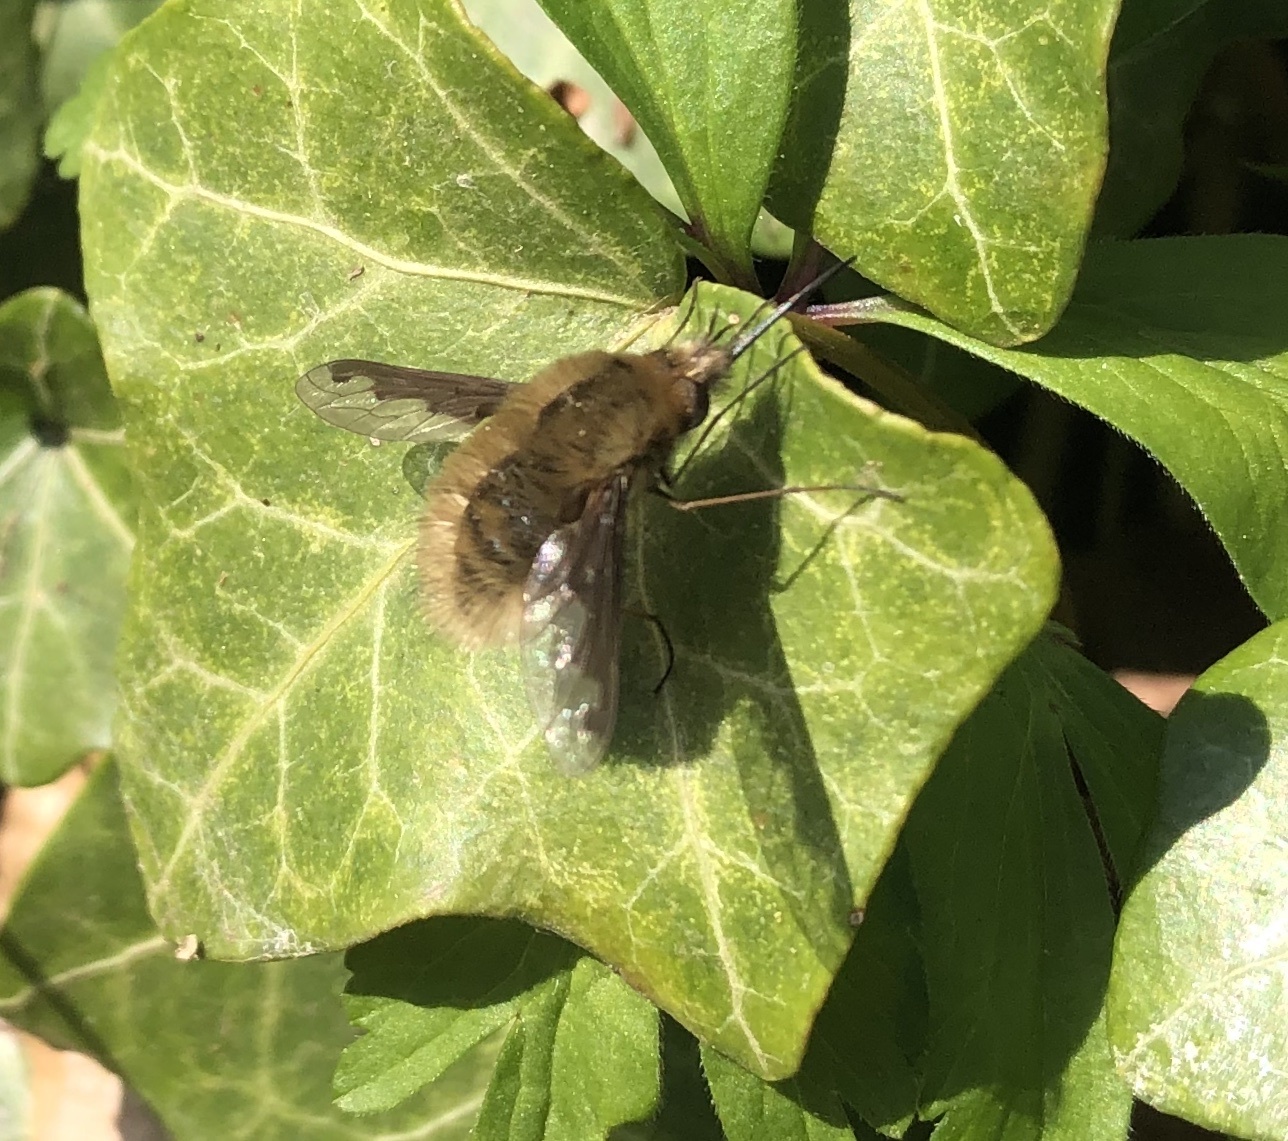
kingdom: Animalia
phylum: Arthropoda
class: Insecta
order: Diptera
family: Bombyliidae
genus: Bombylius
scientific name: Bombylius major
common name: Bee fly
